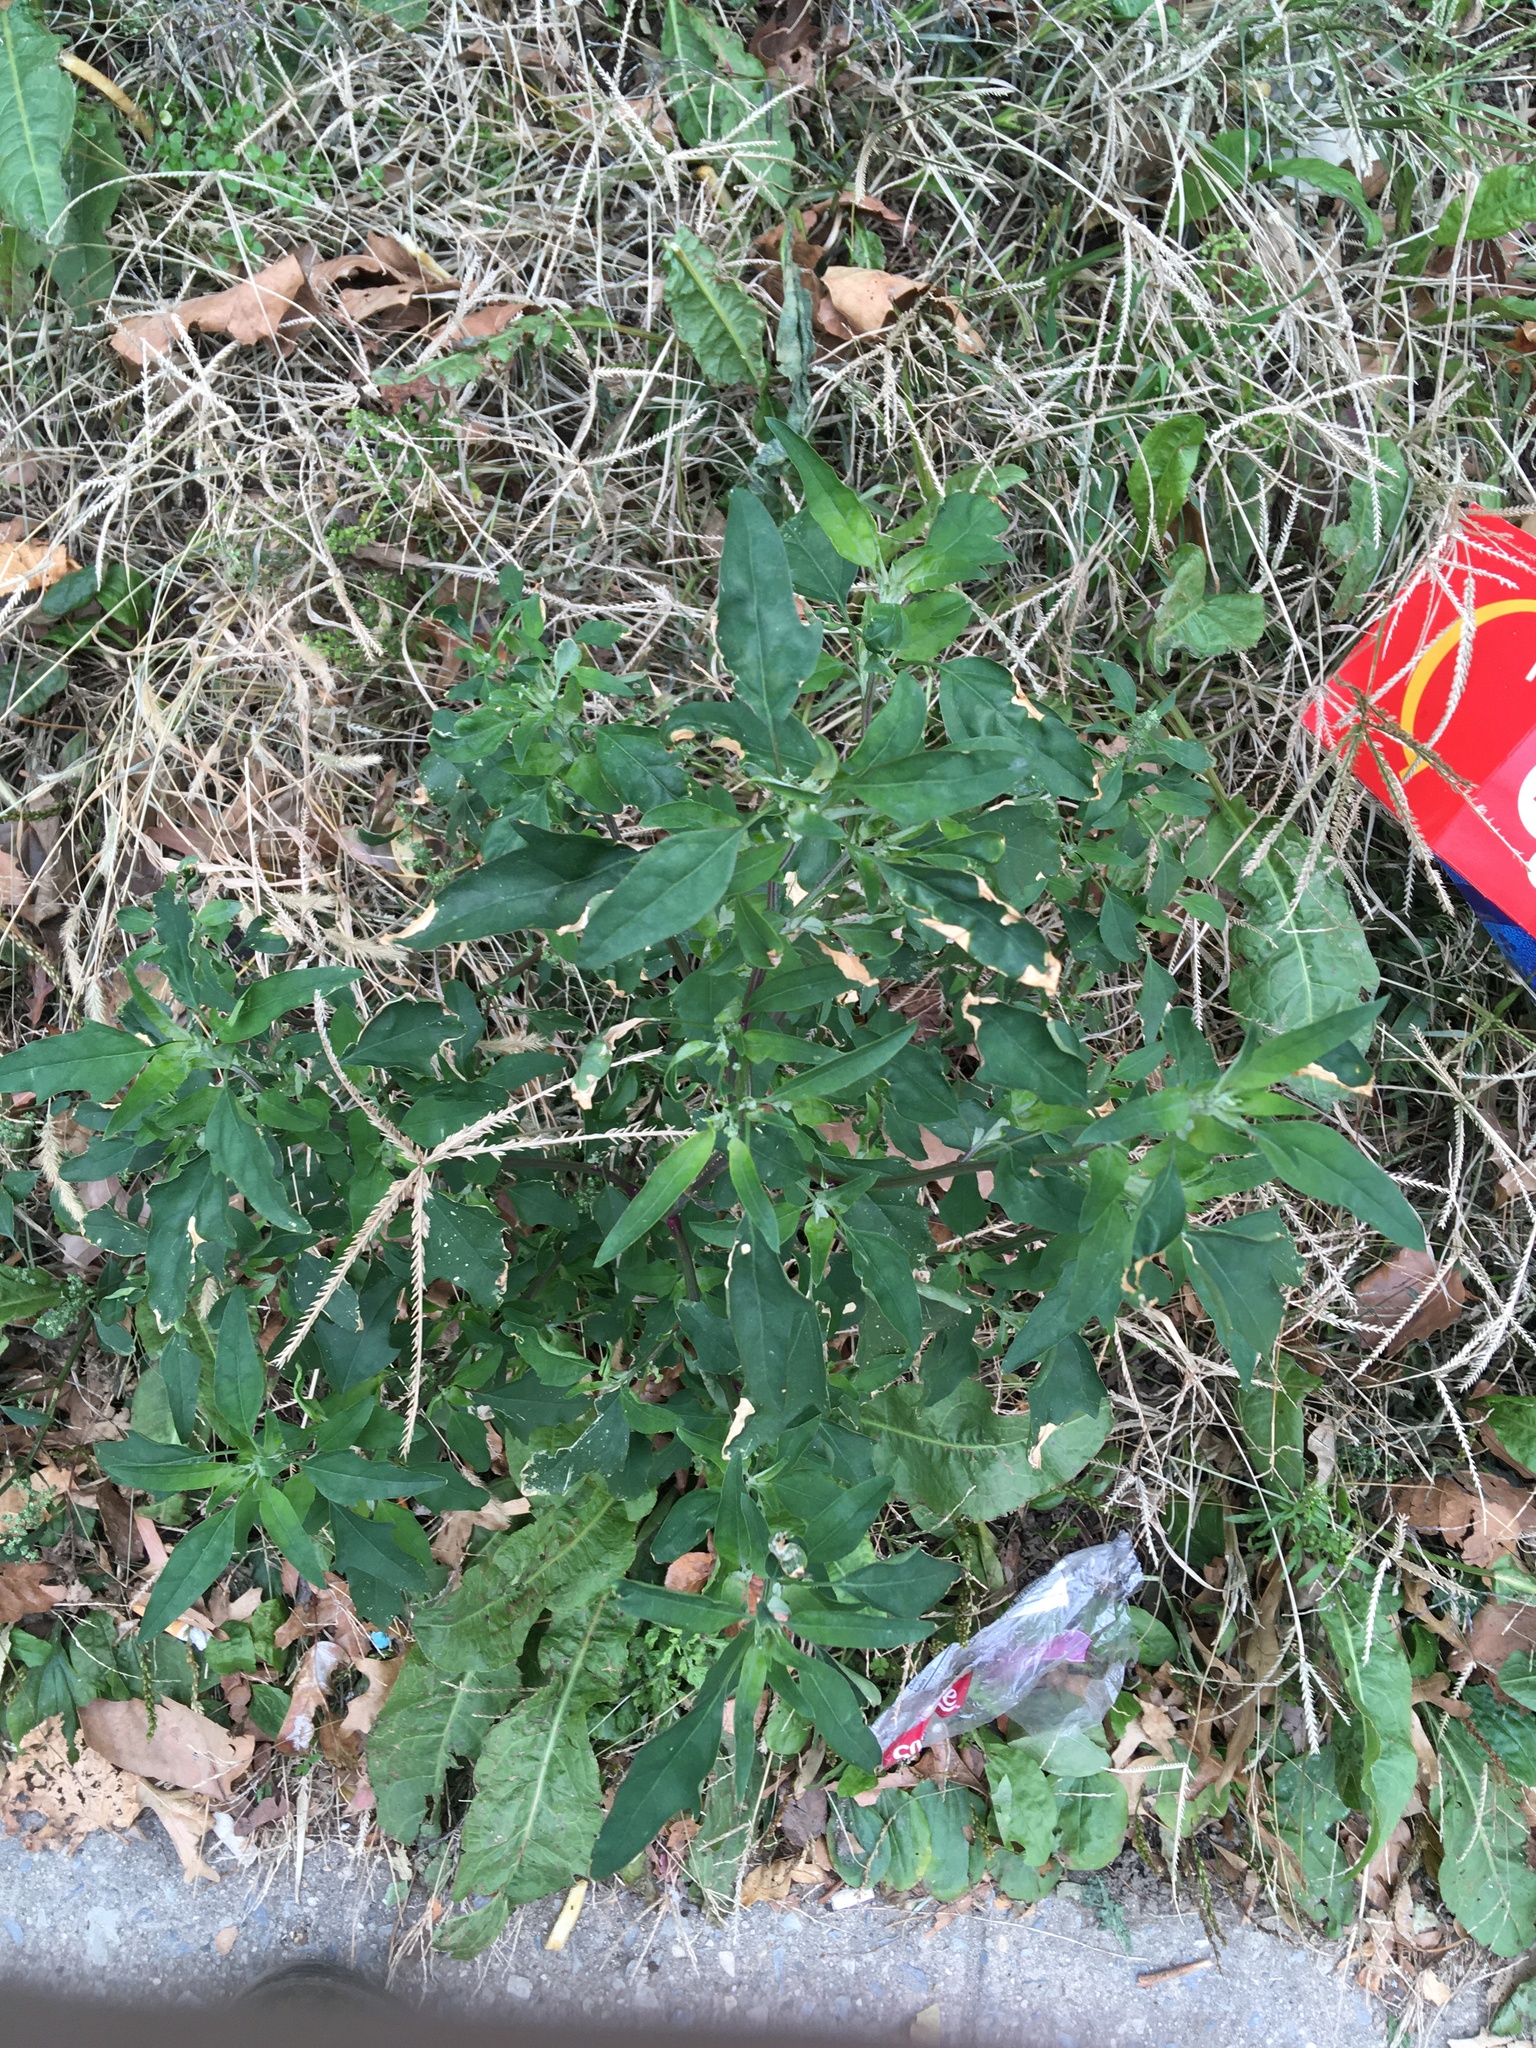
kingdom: Plantae
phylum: Tracheophyta
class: Magnoliopsida
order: Caryophyllales
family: Amaranthaceae
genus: Chenopodium
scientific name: Chenopodium album
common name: Fat-hen
